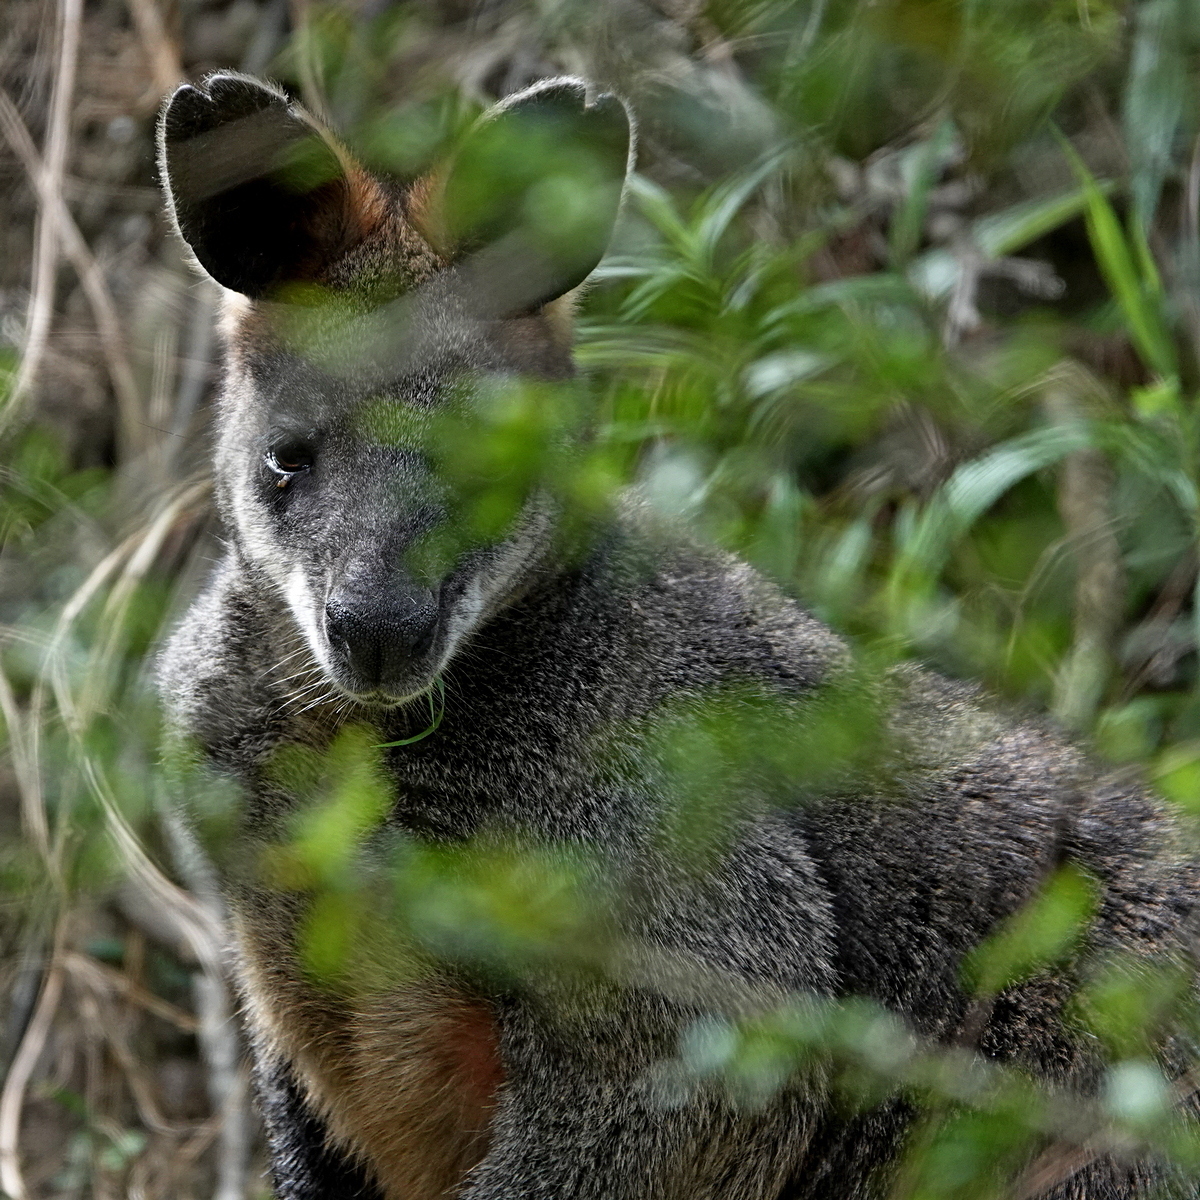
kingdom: Animalia
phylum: Chordata
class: Mammalia
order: Diprotodontia
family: Macropodidae
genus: Wallabia
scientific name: Wallabia bicolor
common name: Swamp wallaby
